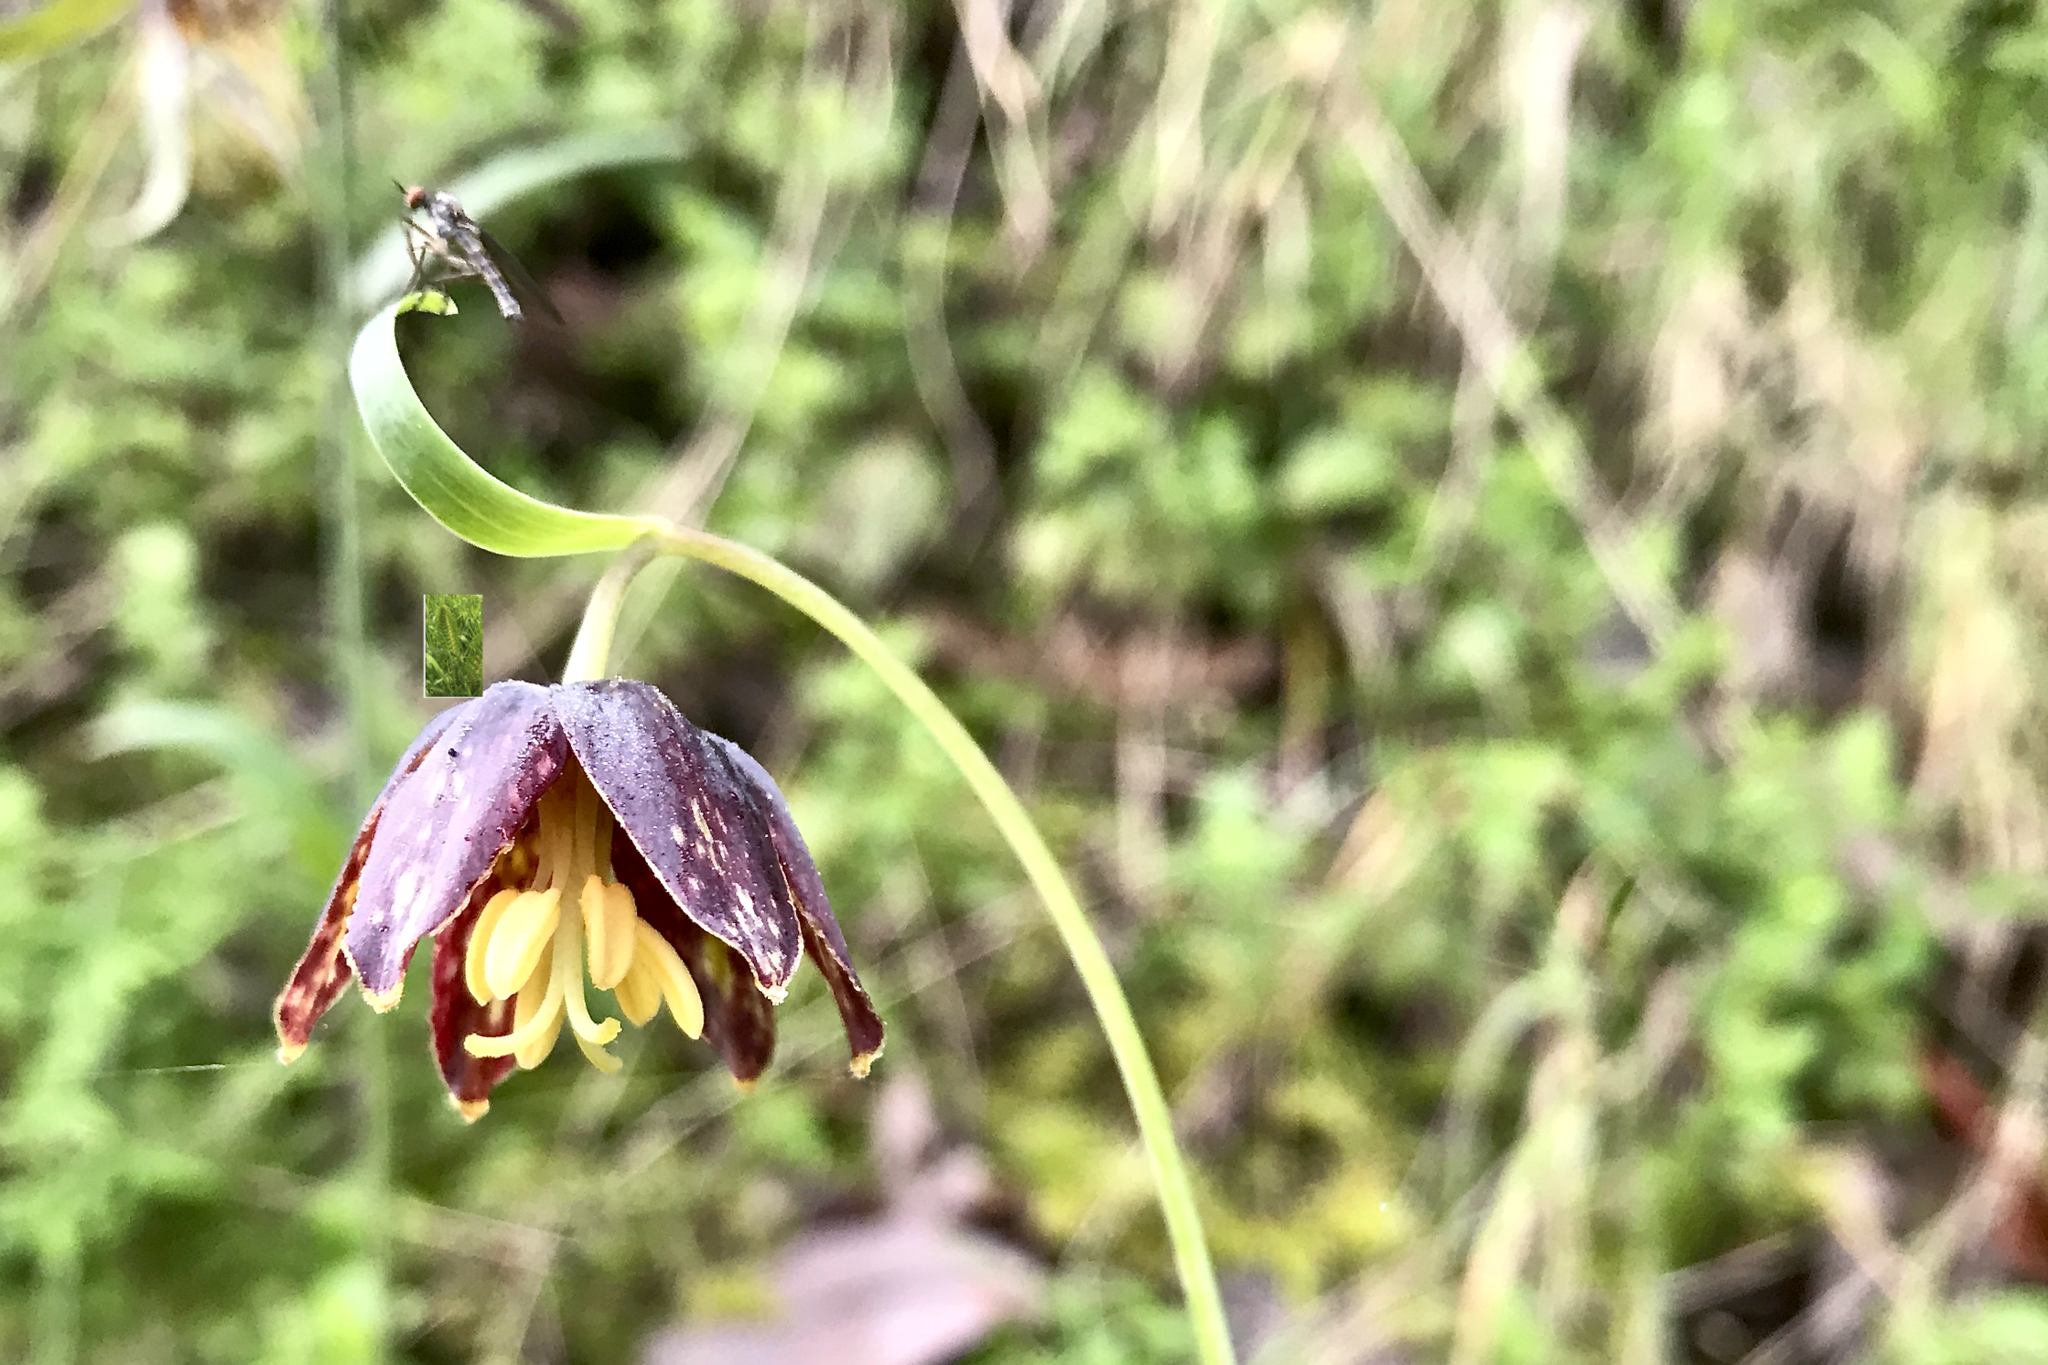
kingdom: Plantae
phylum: Tracheophyta
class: Liliopsida
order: Liliales
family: Liliaceae
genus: Fritillaria
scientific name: Fritillaria affinis
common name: Ojai fritillary
